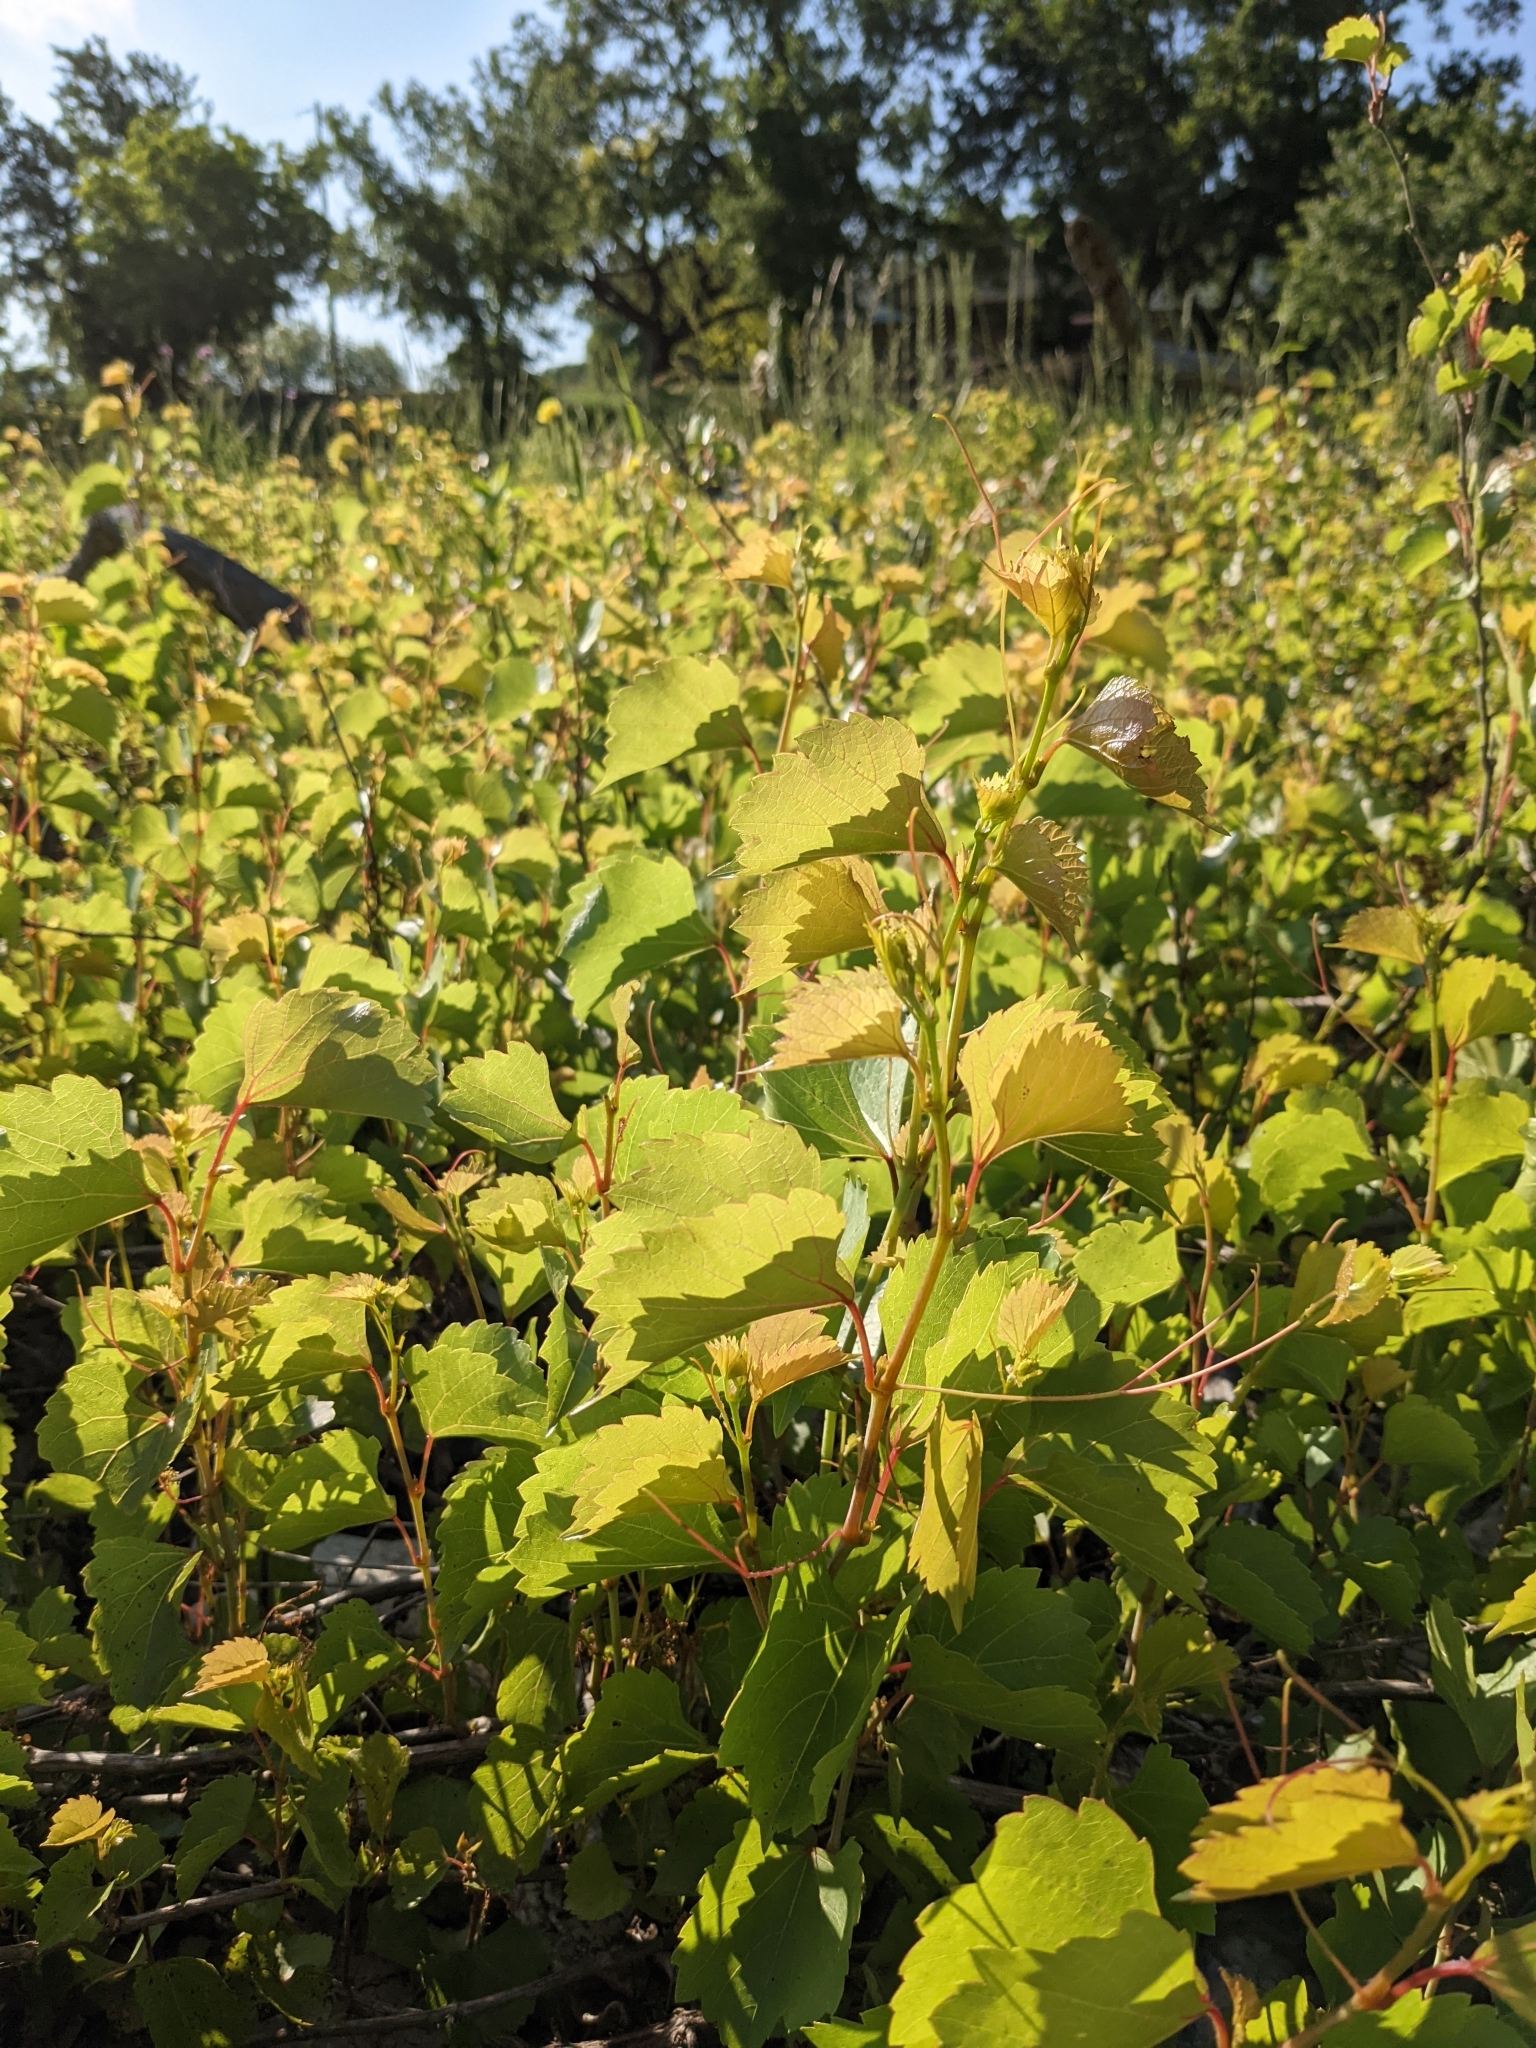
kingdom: Plantae
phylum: Tracheophyta
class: Magnoliopsida
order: Vitales
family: Vitaceae
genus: Vitis
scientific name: Vitis rupestris
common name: Rock grape
